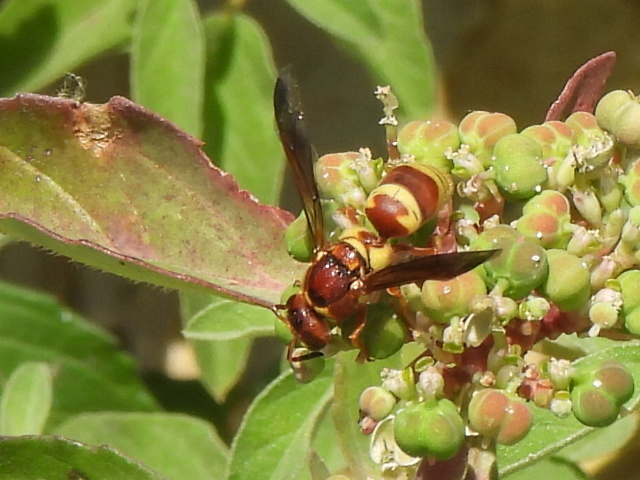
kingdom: Animalia
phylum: Arthropoda
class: Insecta
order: Hymenoptera
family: Eumenidae
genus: Euodynerus
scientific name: Euodynerus pratensis
